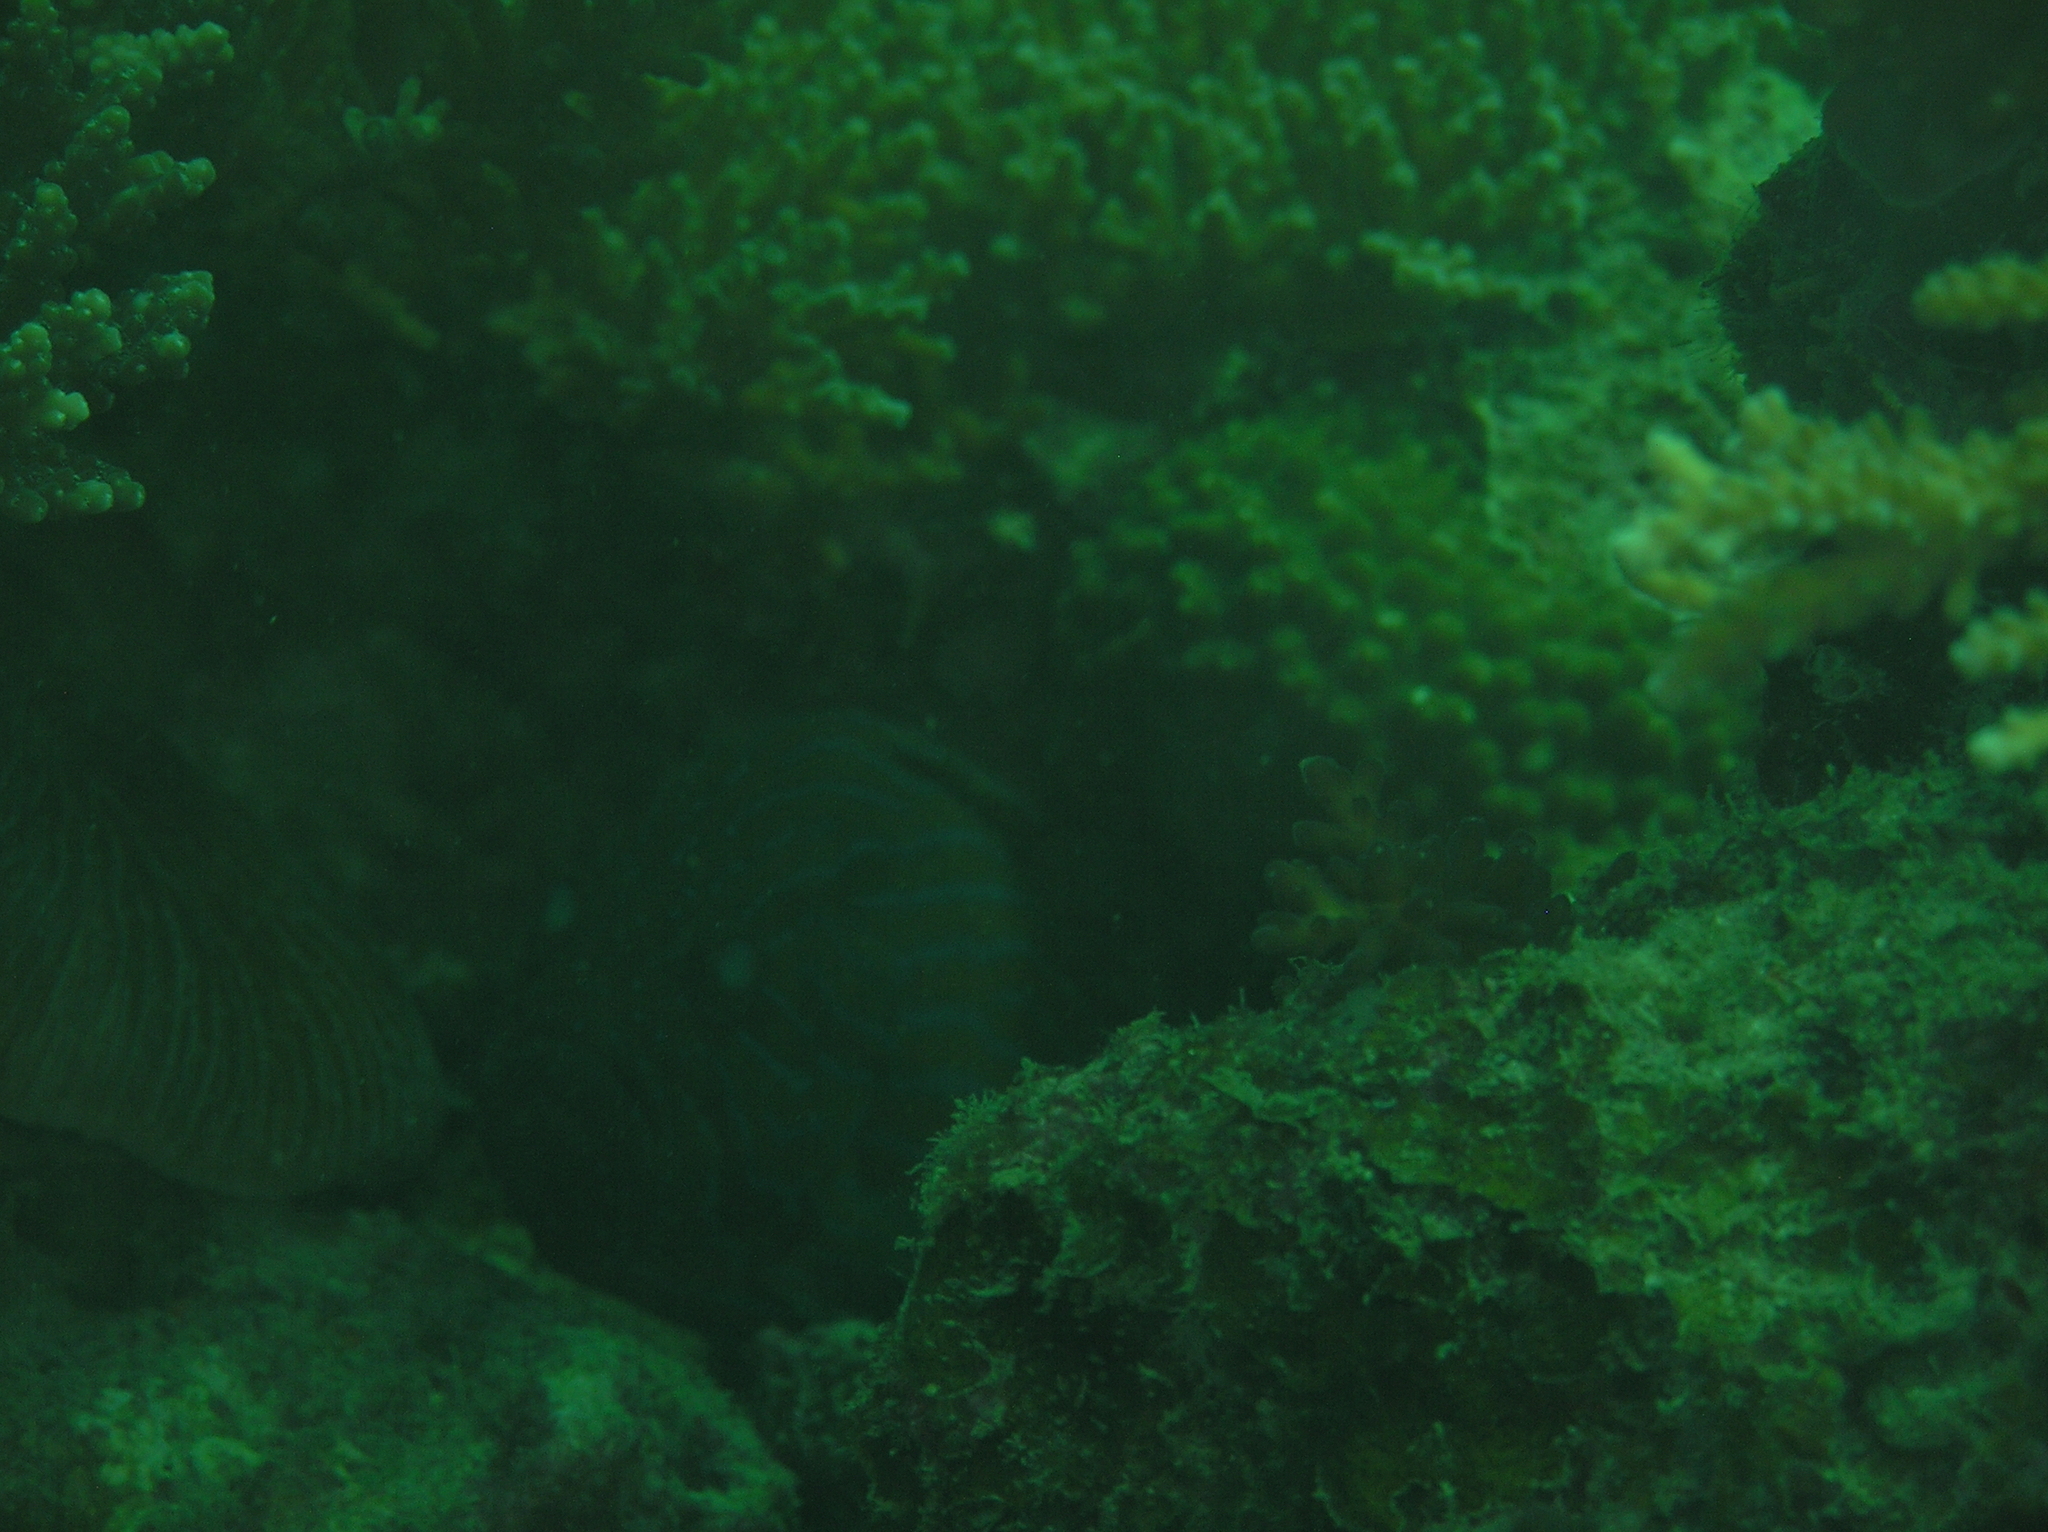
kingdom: Animalia
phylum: Chordata
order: Perciformes
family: Serranidae
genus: Cephalopholis
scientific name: Cephalopholis formosa
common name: Bluelined hind
